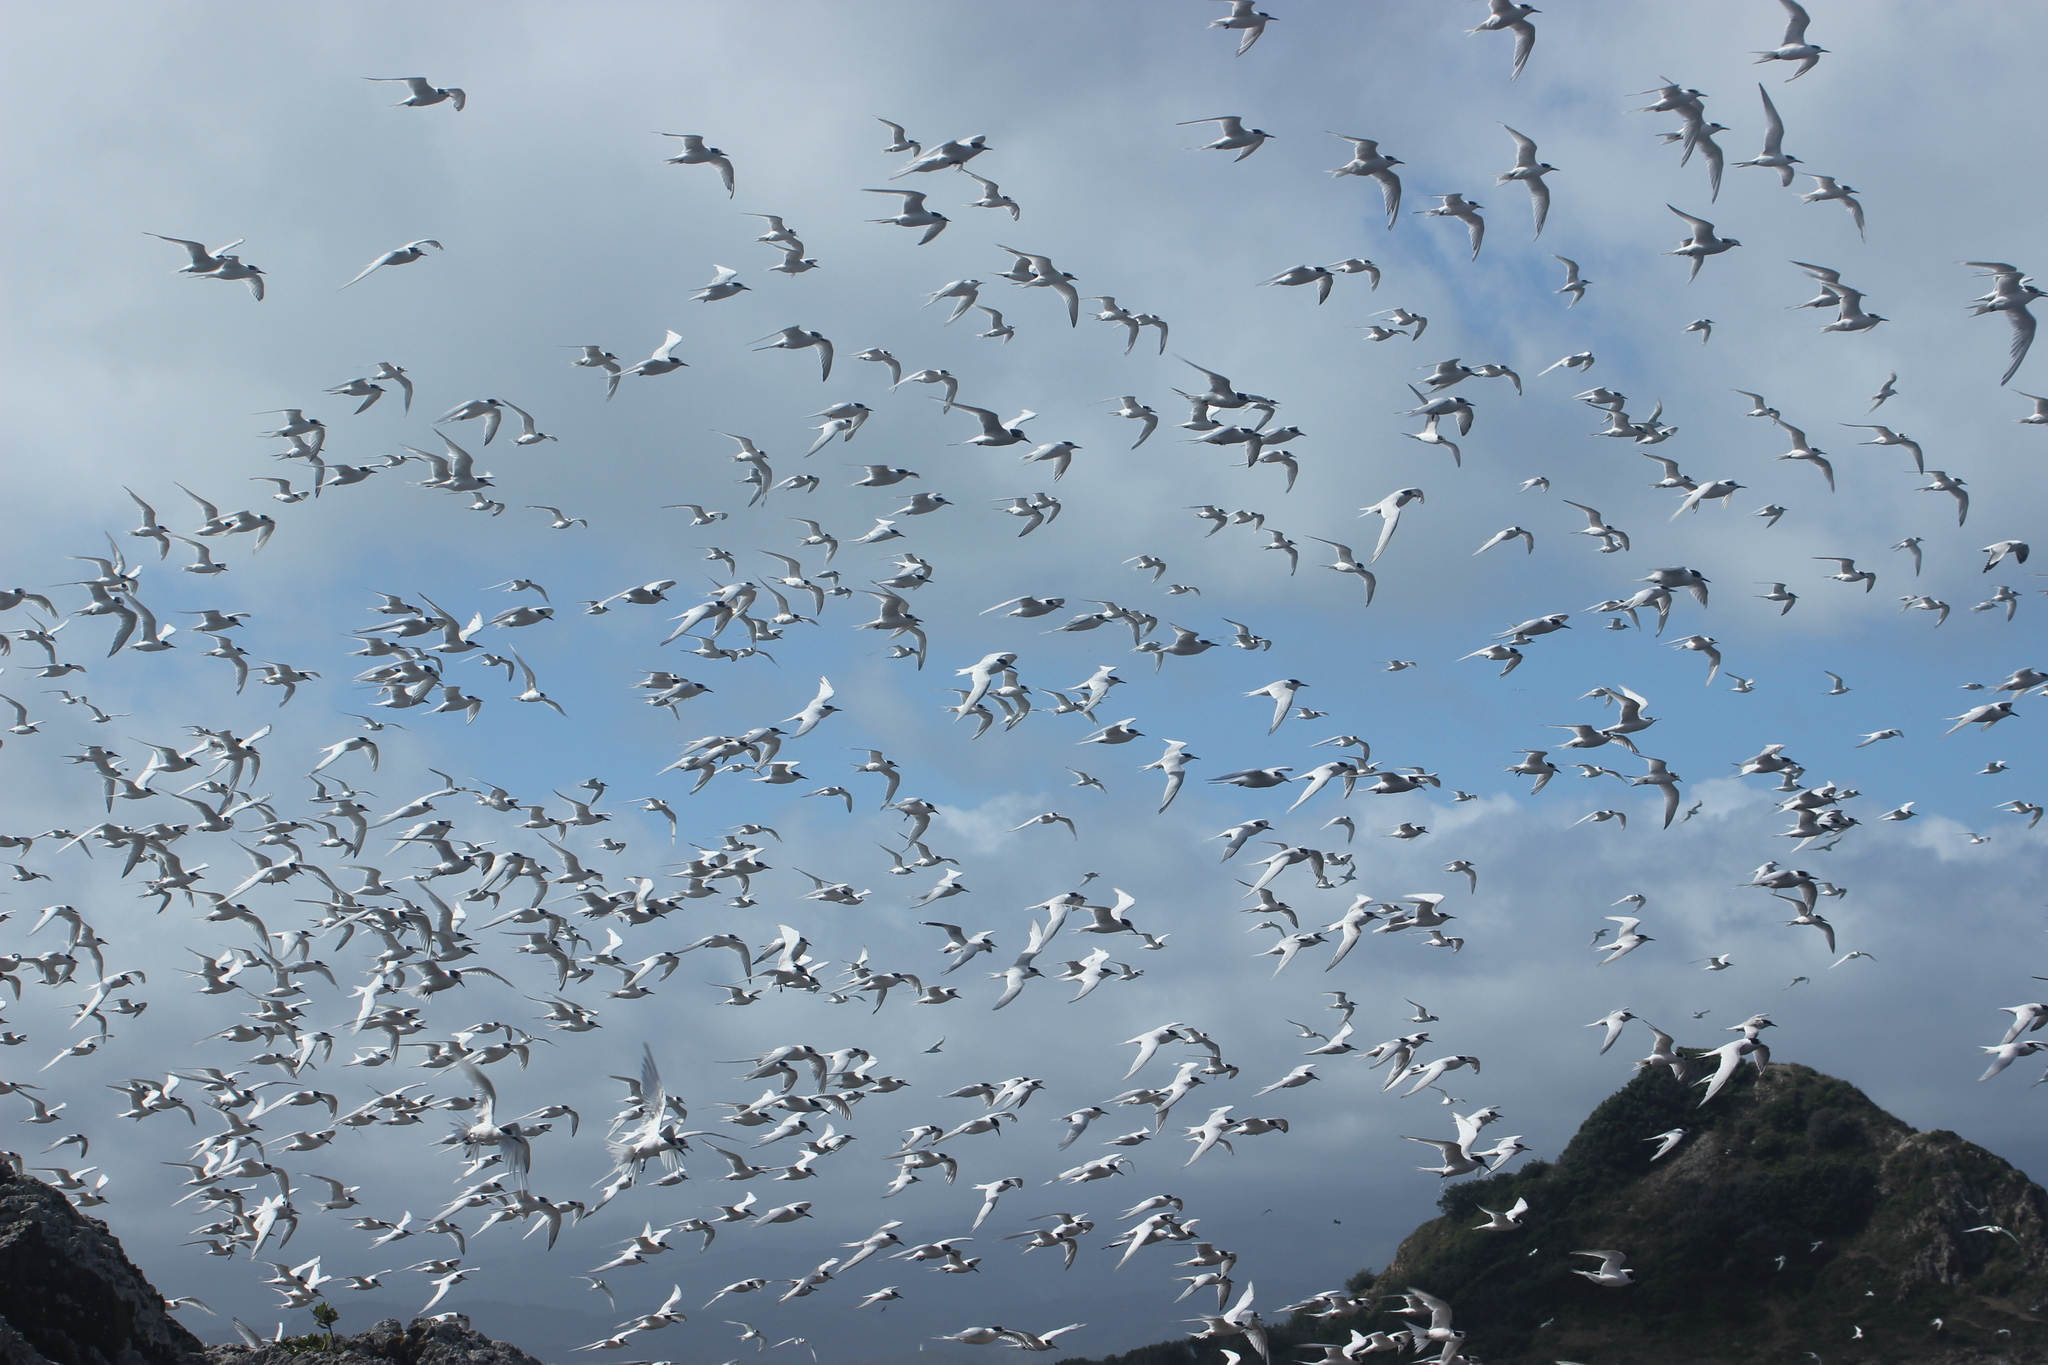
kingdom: Animalia
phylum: Chordata
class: Aves
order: Charadriiformes
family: Laridae
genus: Sterna
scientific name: Sterna striata
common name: White-fronted tern
